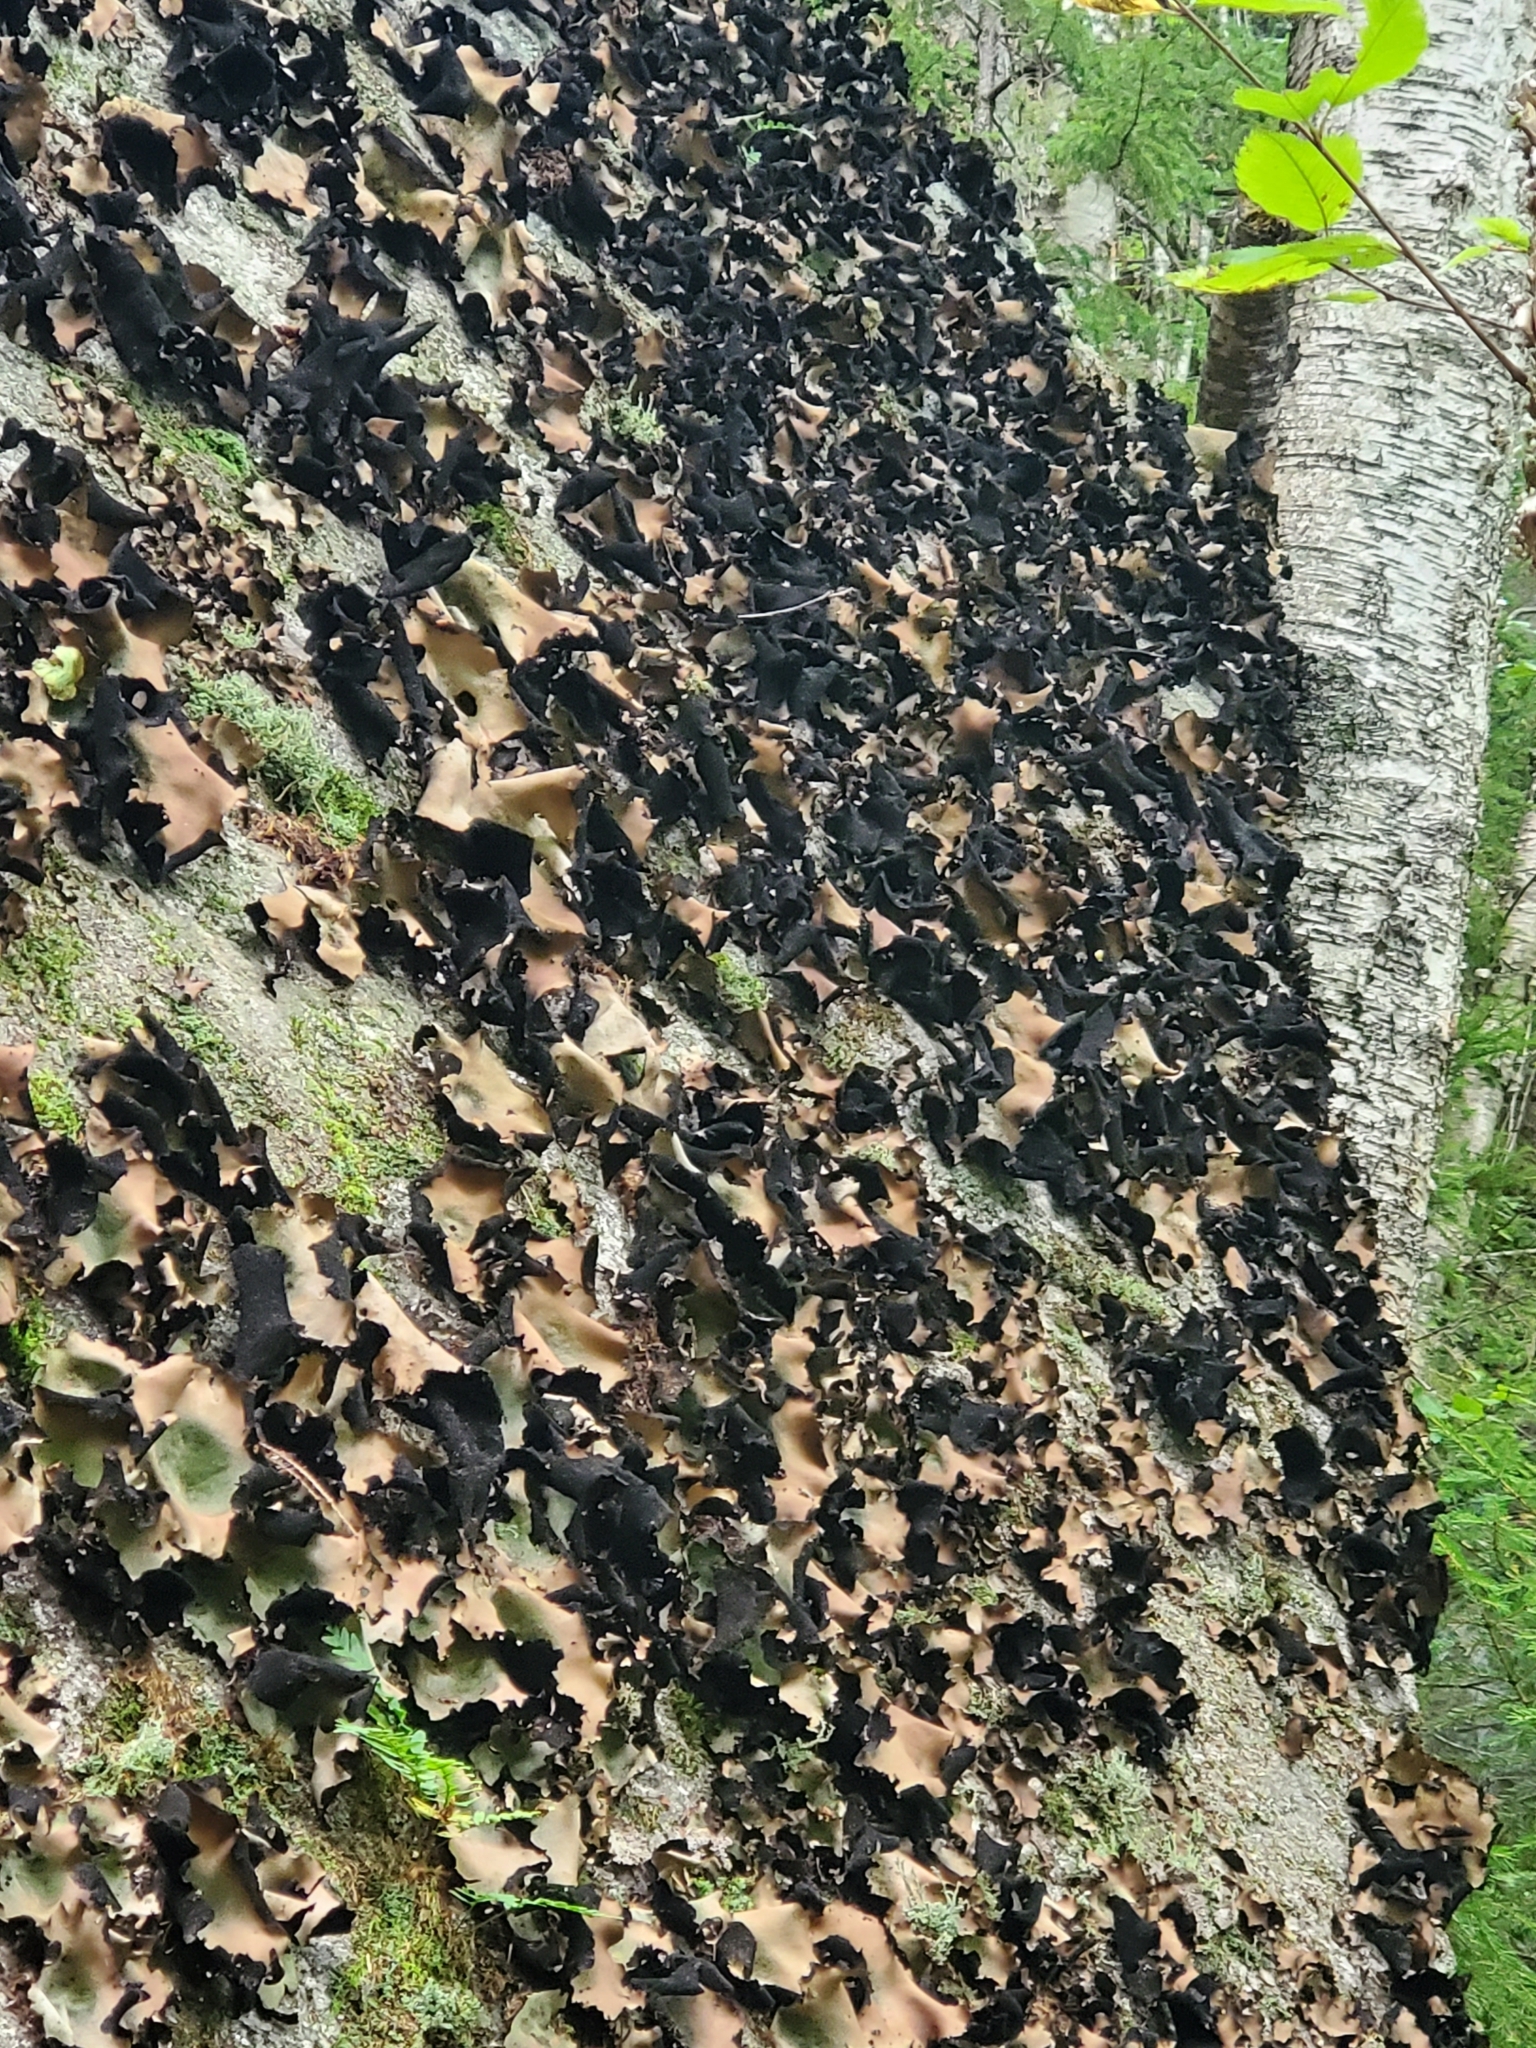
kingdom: Fungi
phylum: Ascomycota
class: Lecanoromycetes
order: Umbilicariales
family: Umbilicariaceae
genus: Umbilicaria
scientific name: Umbilicaria mammulata
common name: Smooth rock tripe
